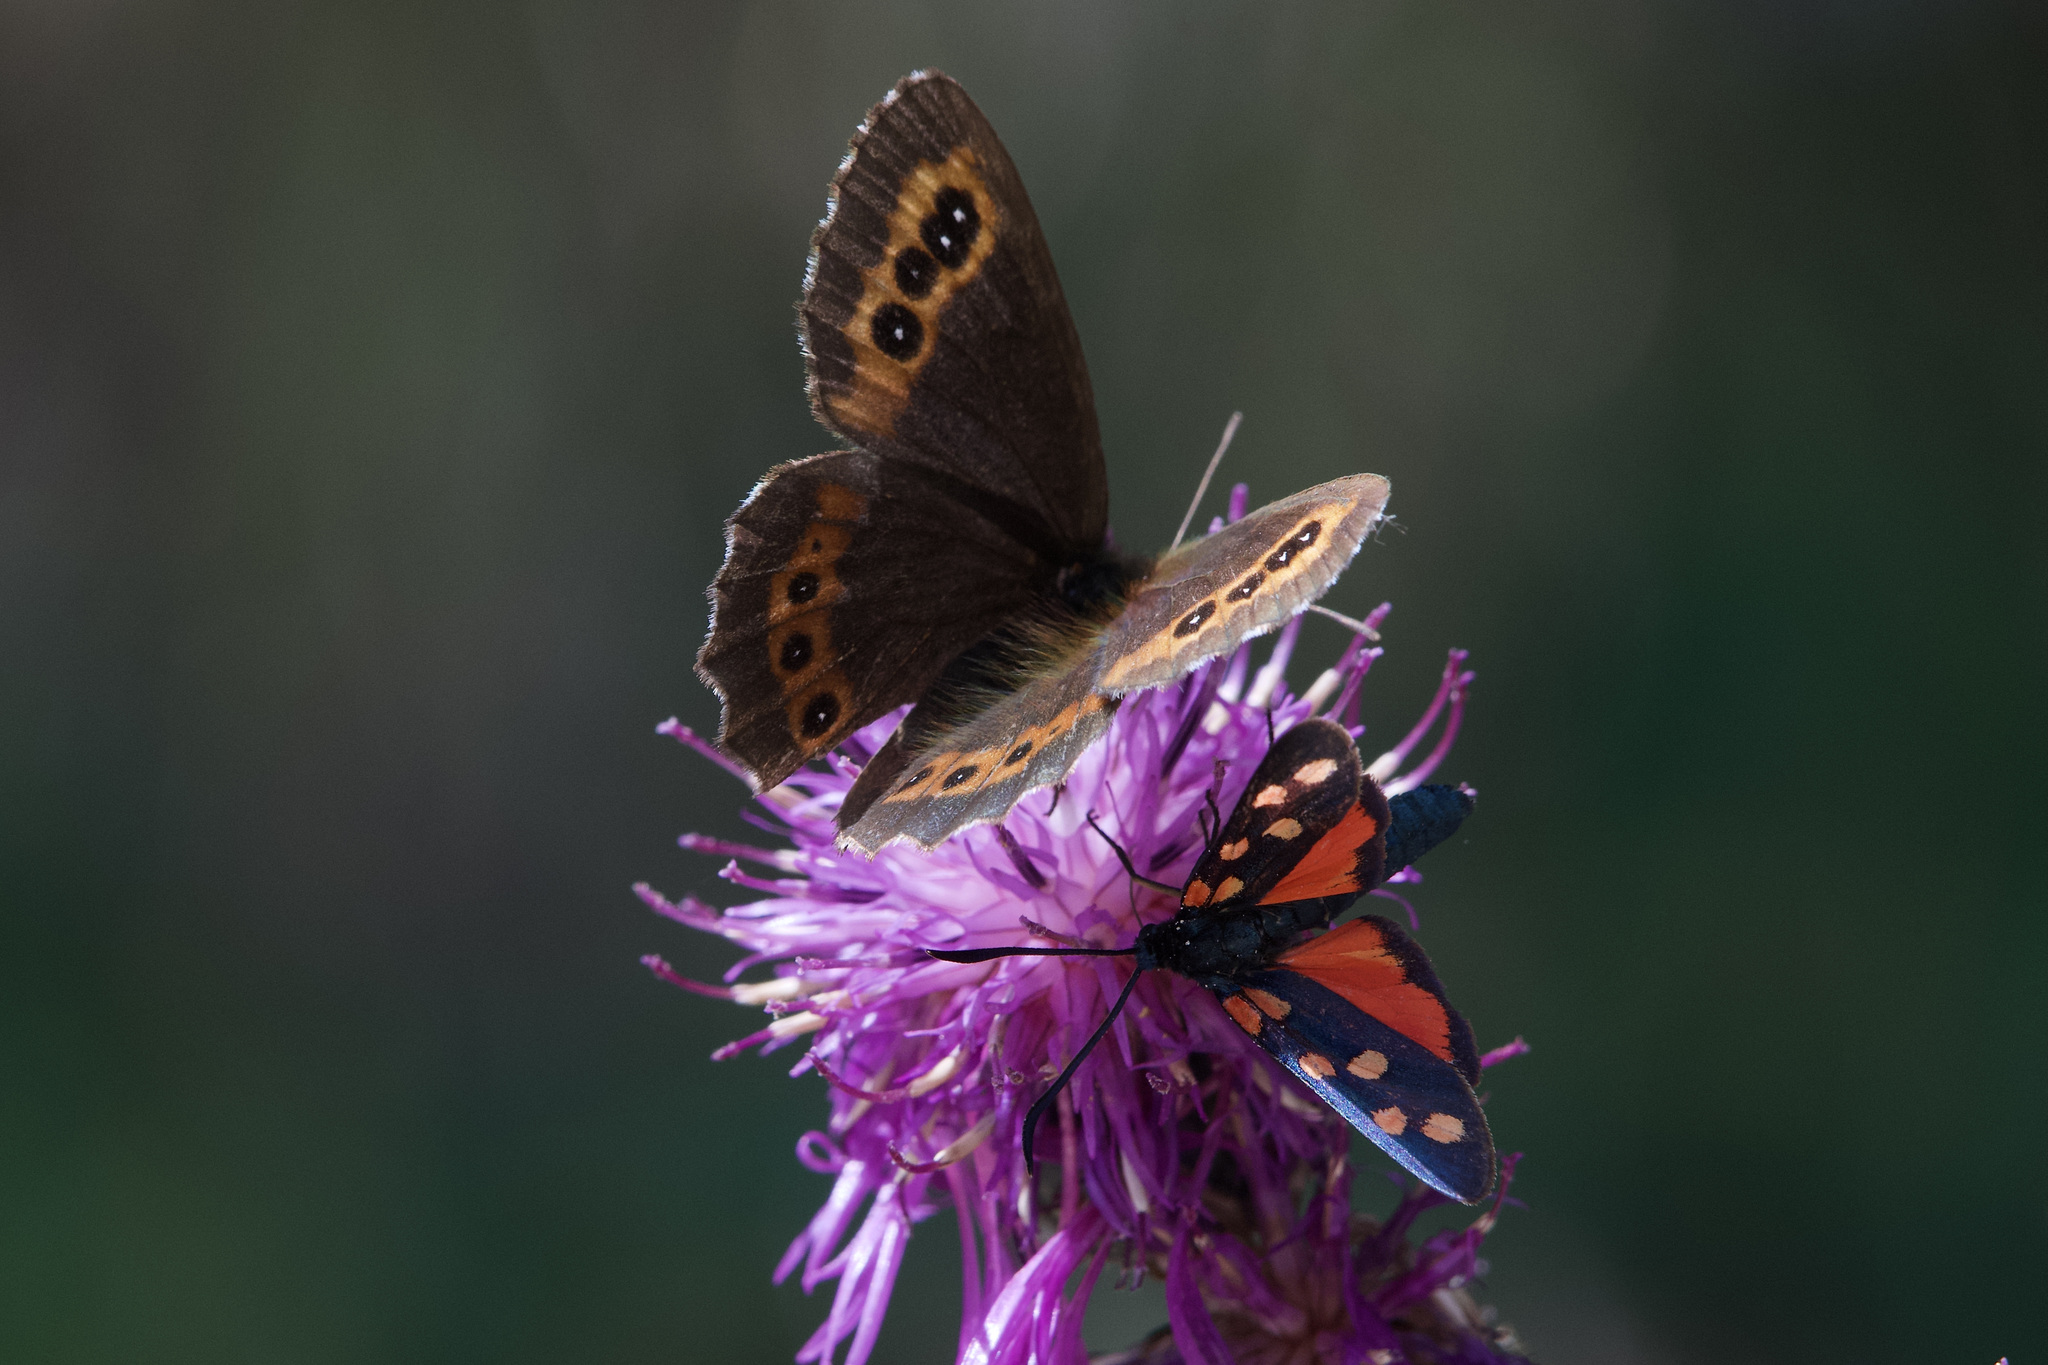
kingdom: Animalia
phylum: Arthropoda
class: Insecta
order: Lepidoptera
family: Nymphalidae
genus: Erebia
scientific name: Erebia ligea
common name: Arran brown
